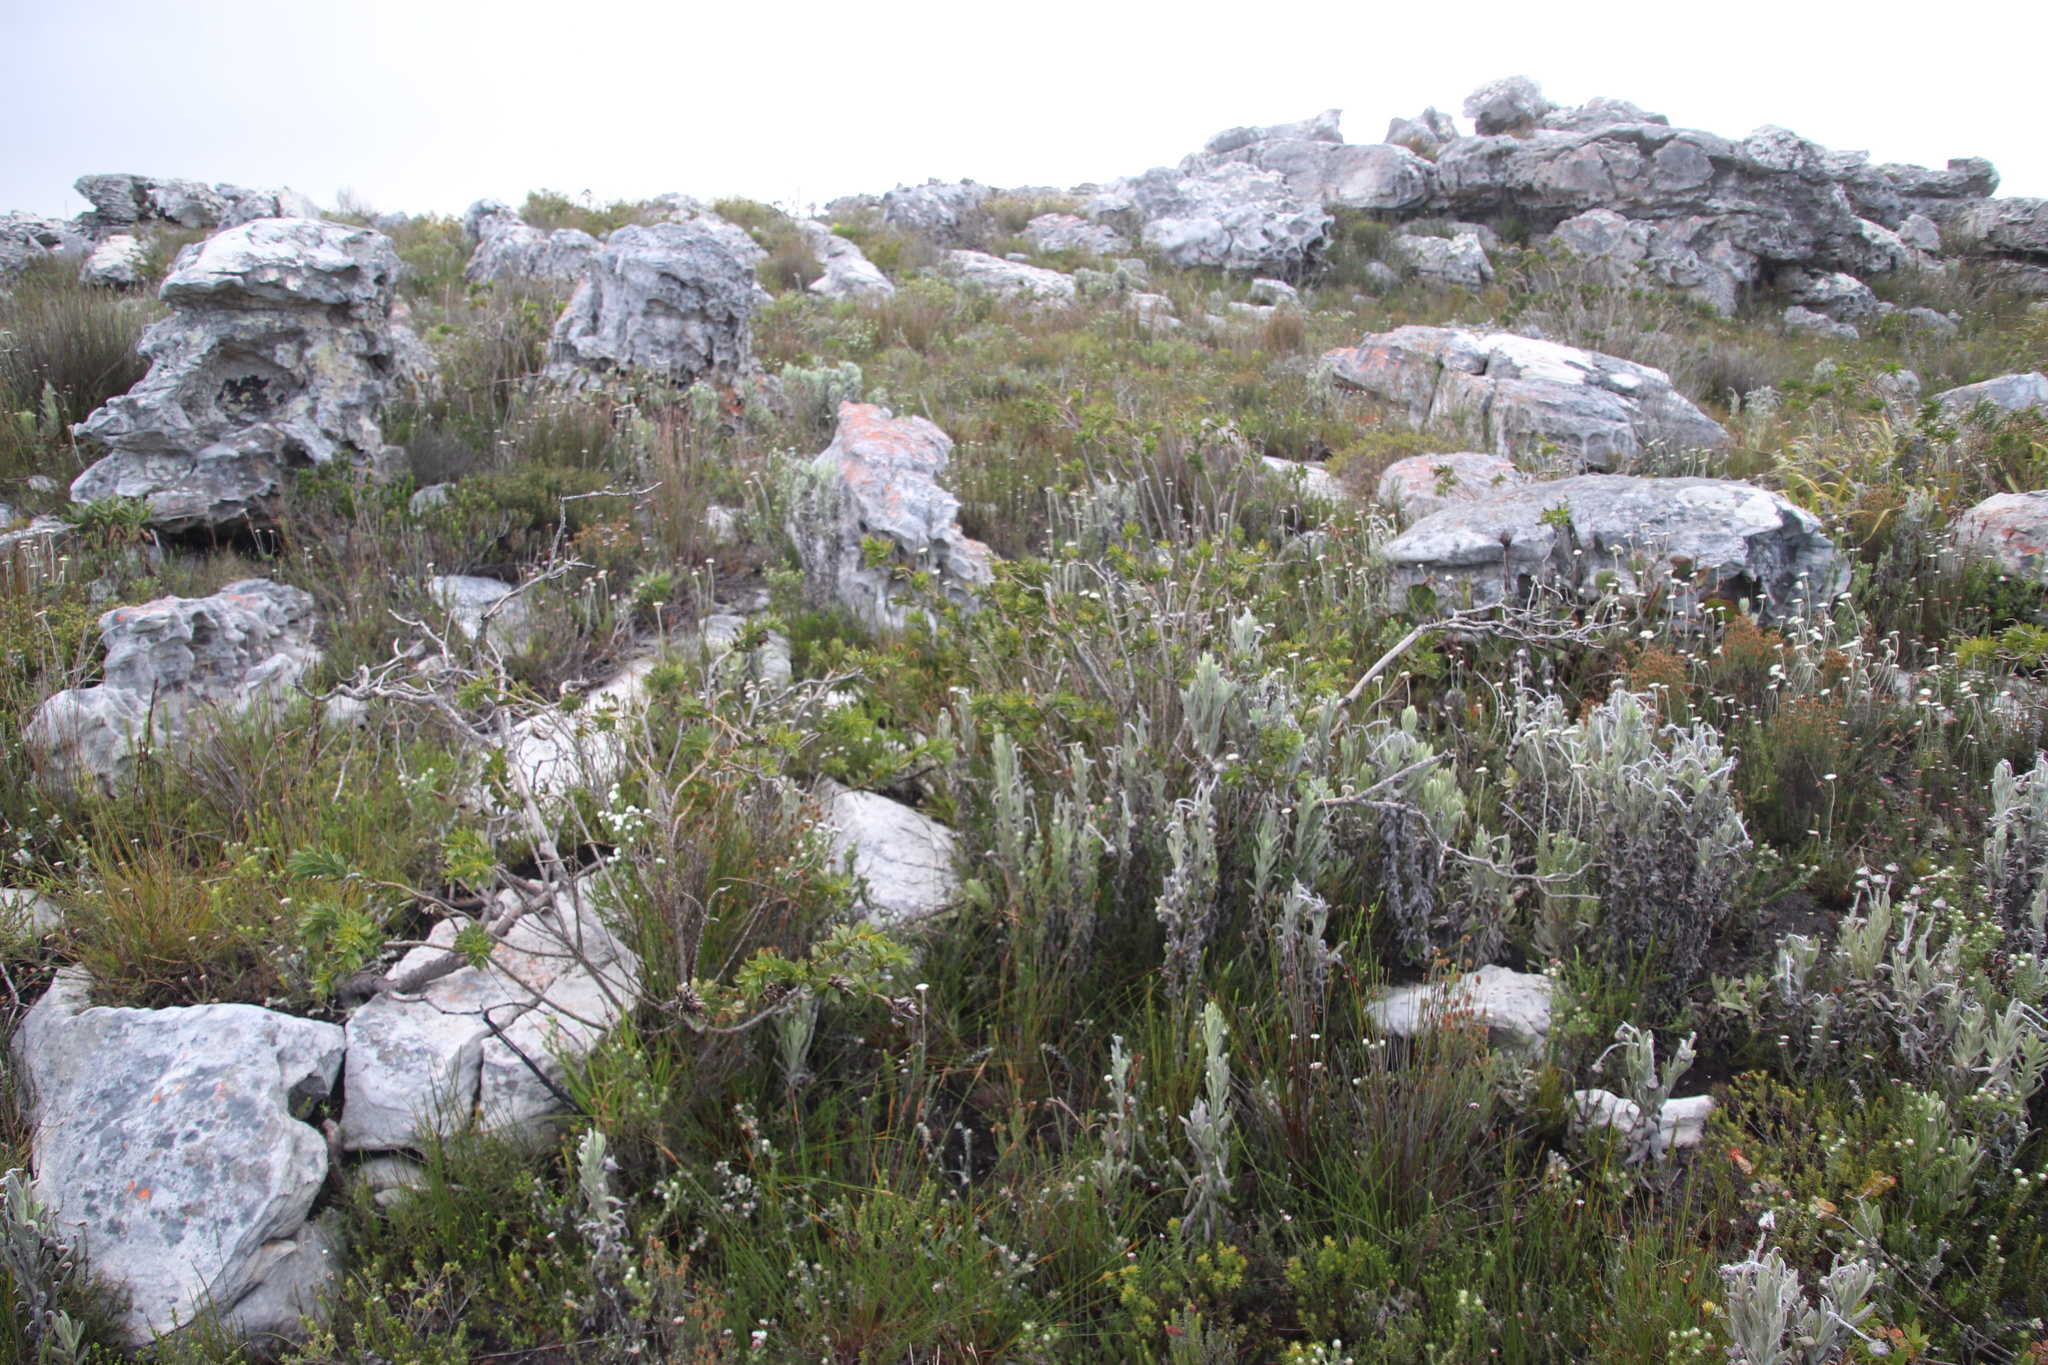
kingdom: Plantae
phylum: Tracheophyta
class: Magnoliopsida
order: Fabales
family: Fabaceae
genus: Liparia
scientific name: Liparia splendens
